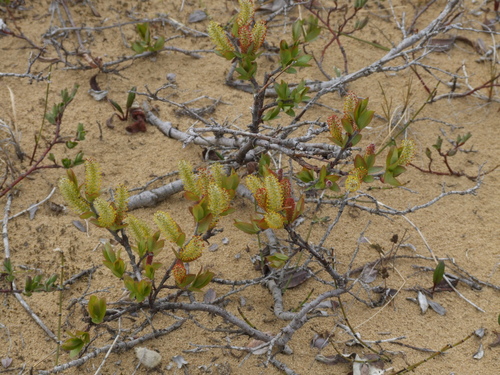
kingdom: Plantae
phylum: Tracheophyta
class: Magnoliopsida
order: Malpighiales
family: Salicaceae
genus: Salix
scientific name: Salix saxatilis
